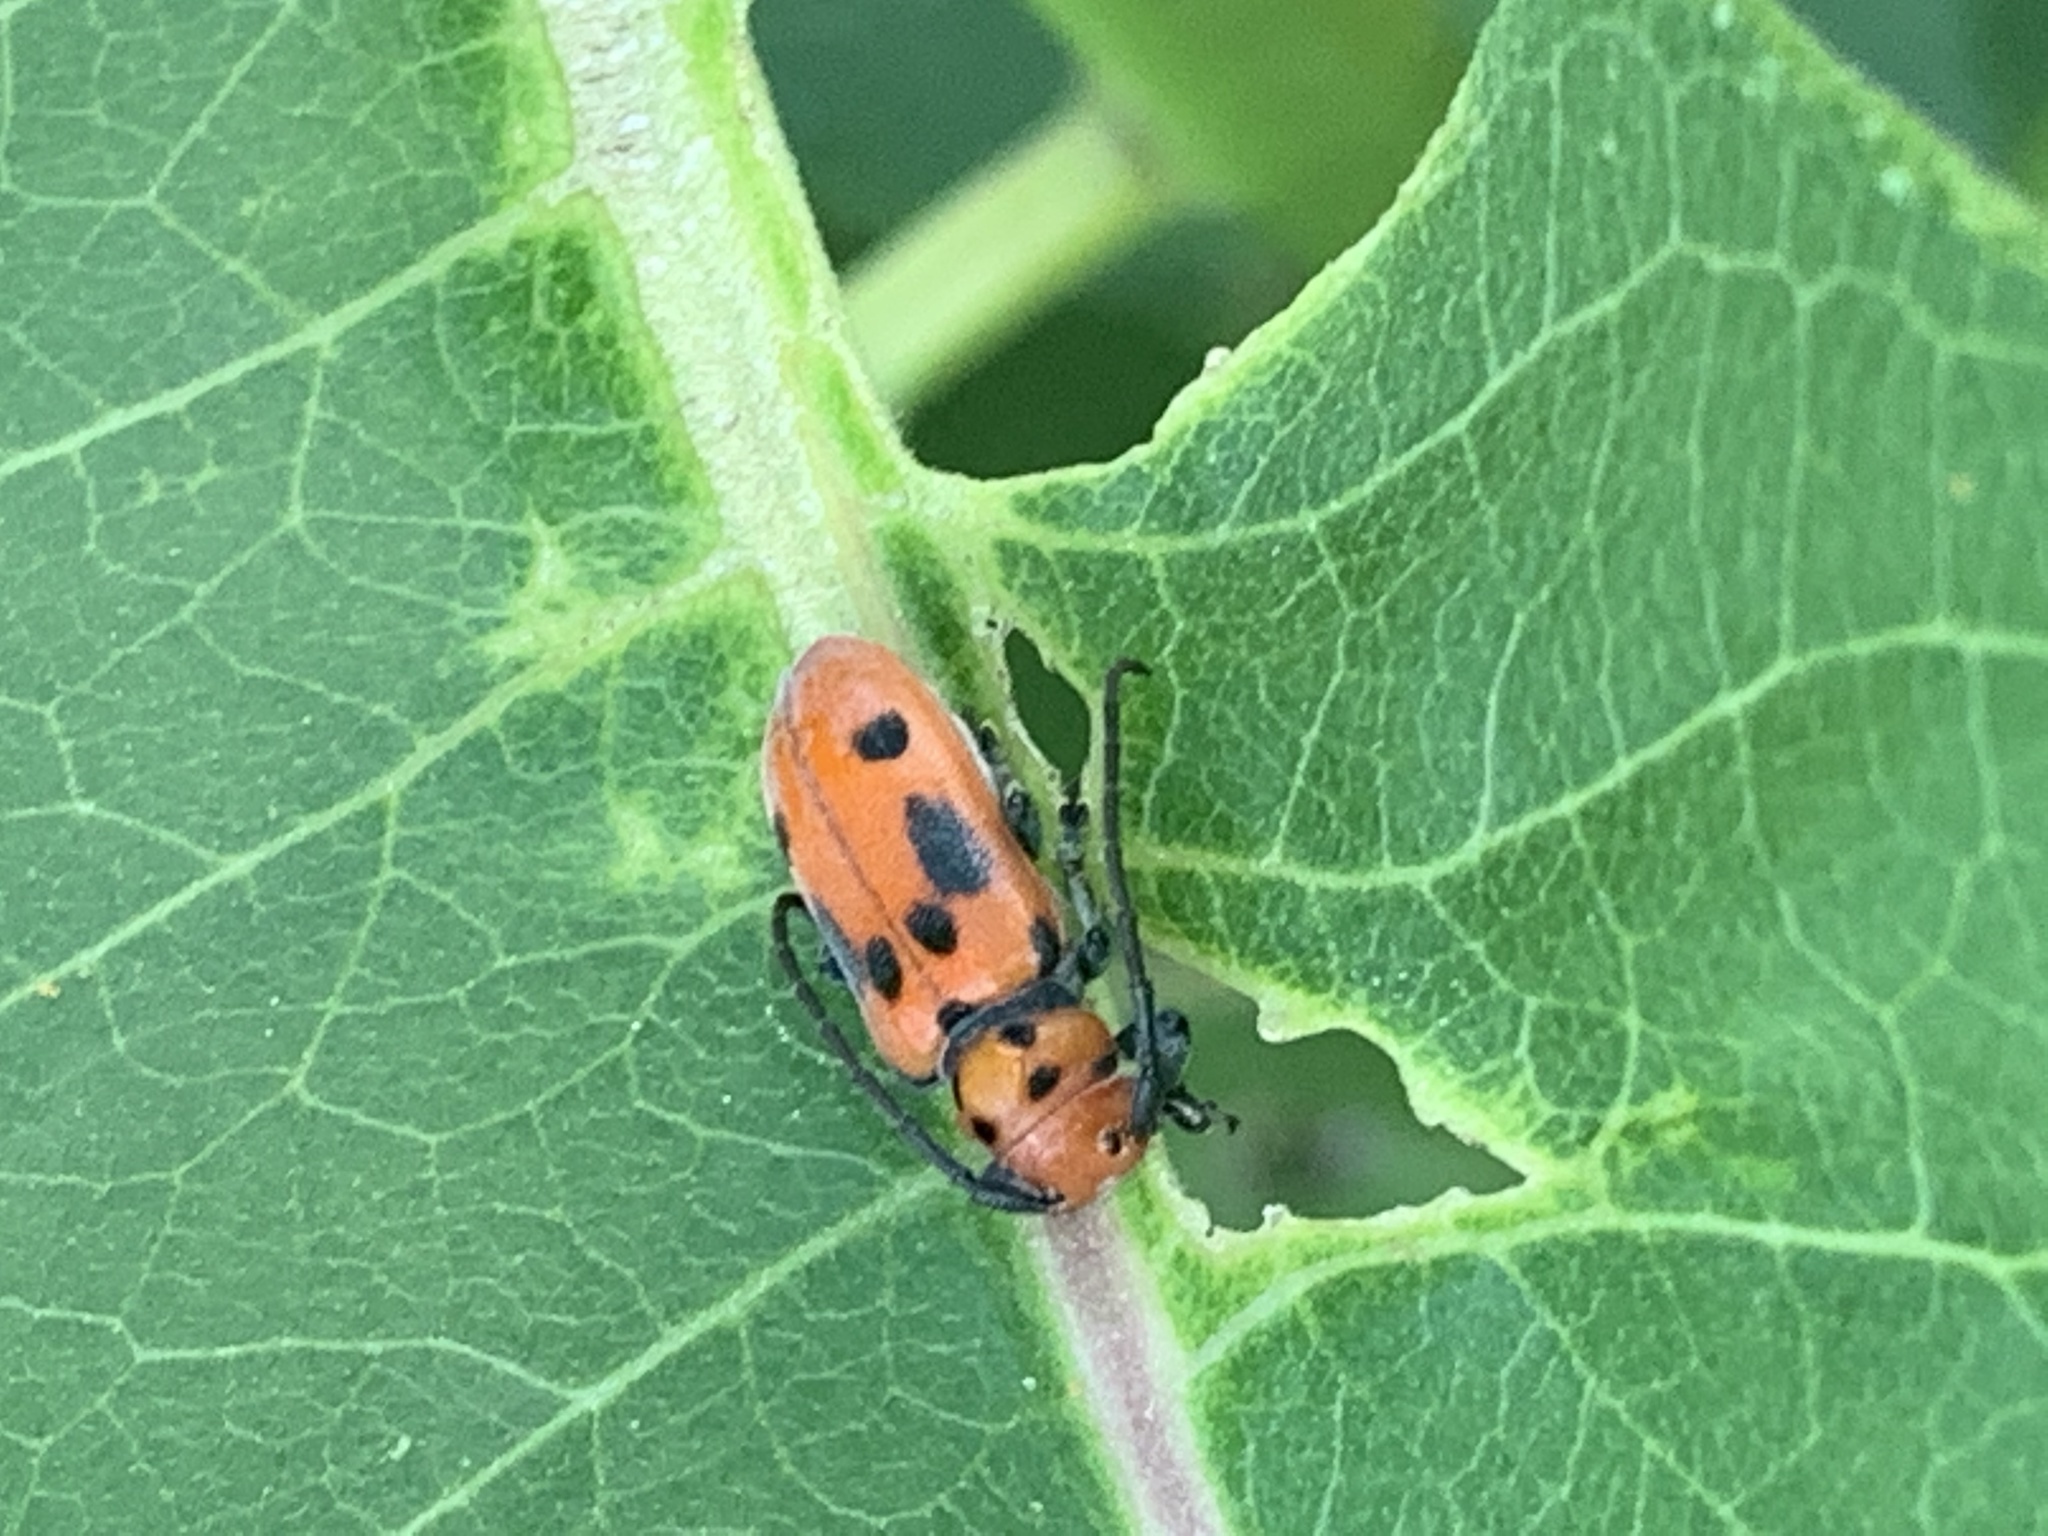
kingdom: Animalia
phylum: Arthropoda
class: Insecta
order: Coleoptera
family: Cerambycidae
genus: Tetraopes
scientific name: Tetraopes tetrophthalmus
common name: Red milkweed beetle
